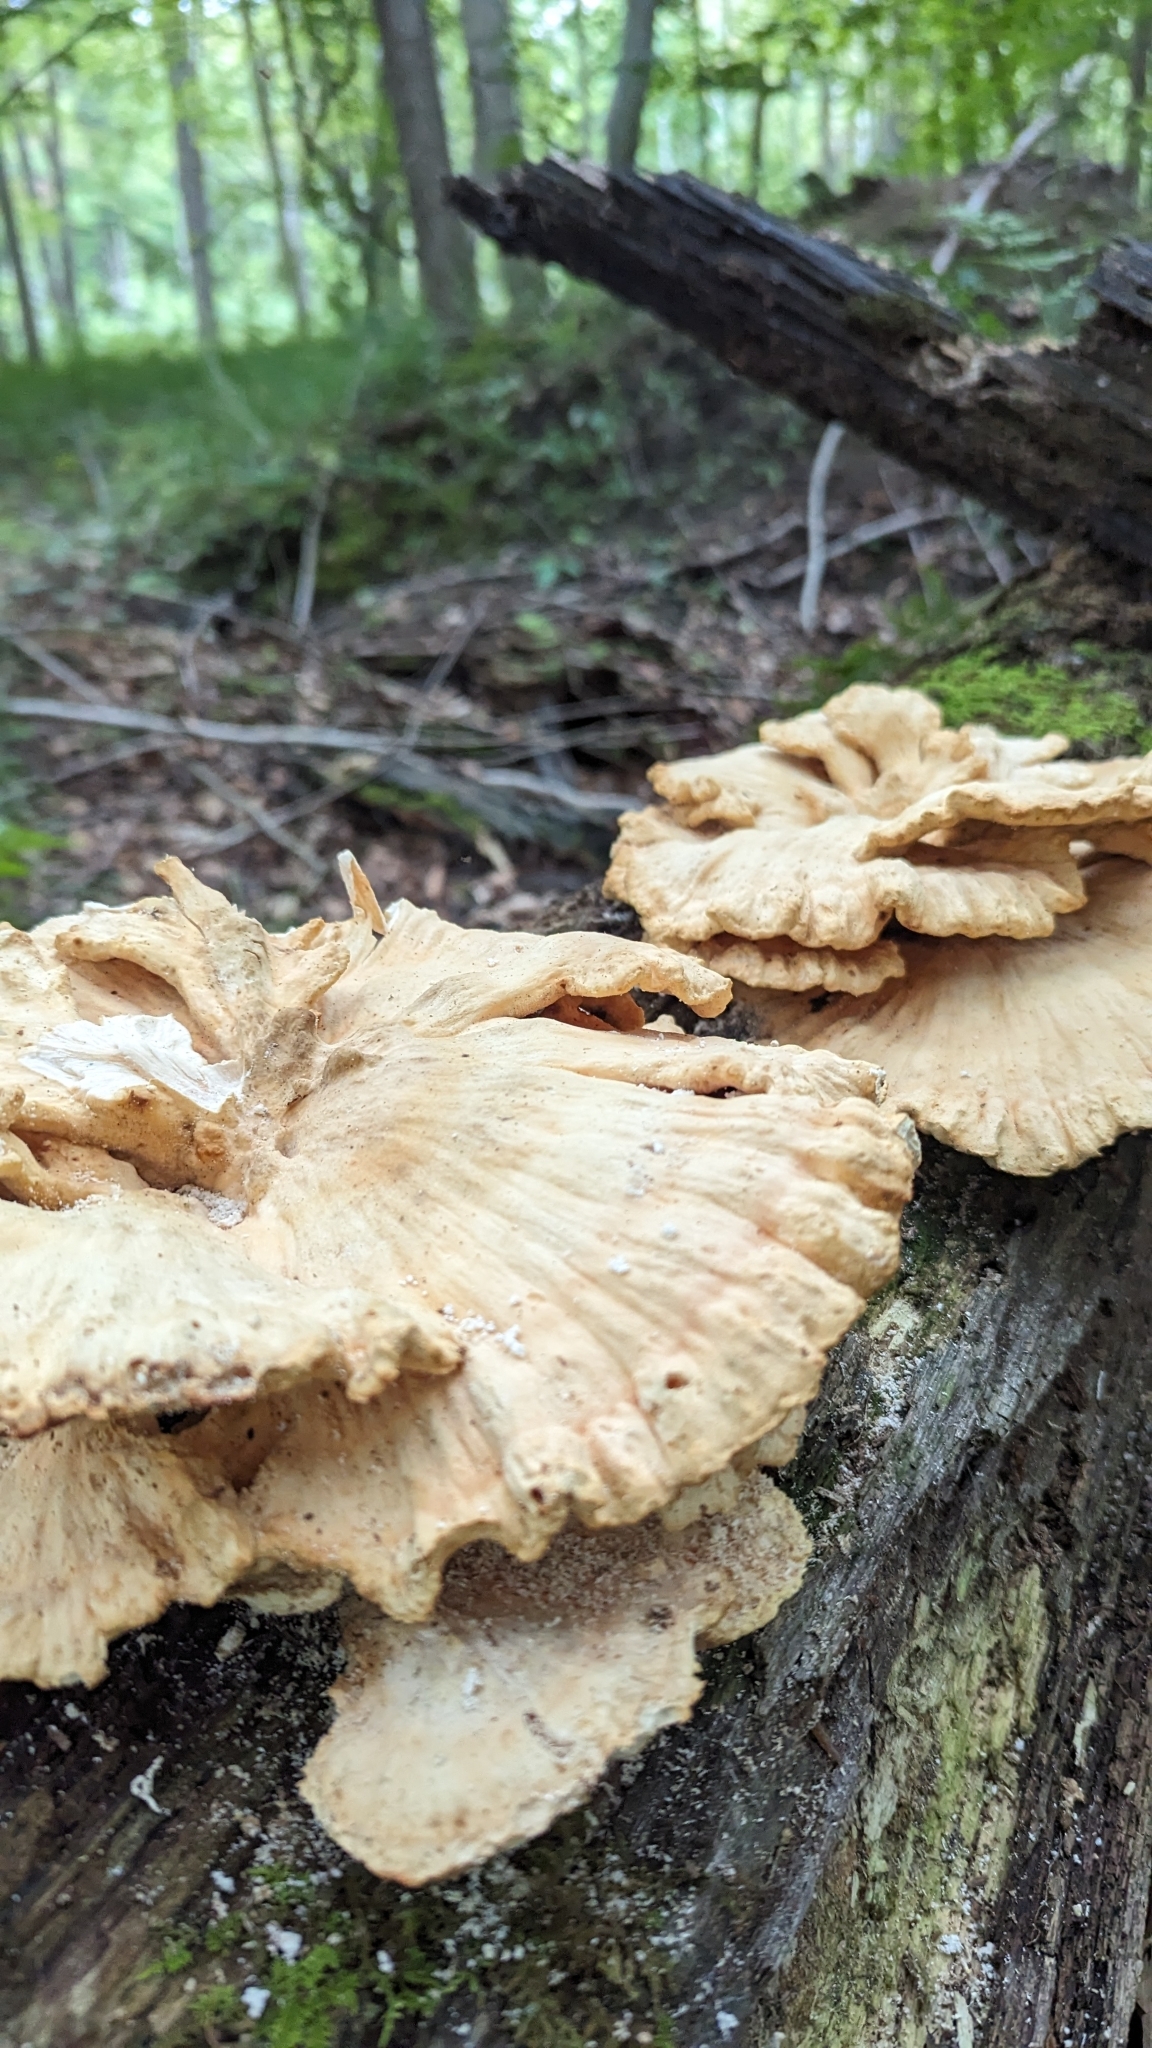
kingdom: Fungi
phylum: Basidiomycota
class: Agaricomycetes
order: Polyporales
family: Laetiporaceae
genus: Laetiporus
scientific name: Laetiporus sulphureus
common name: Chicken of the woods
